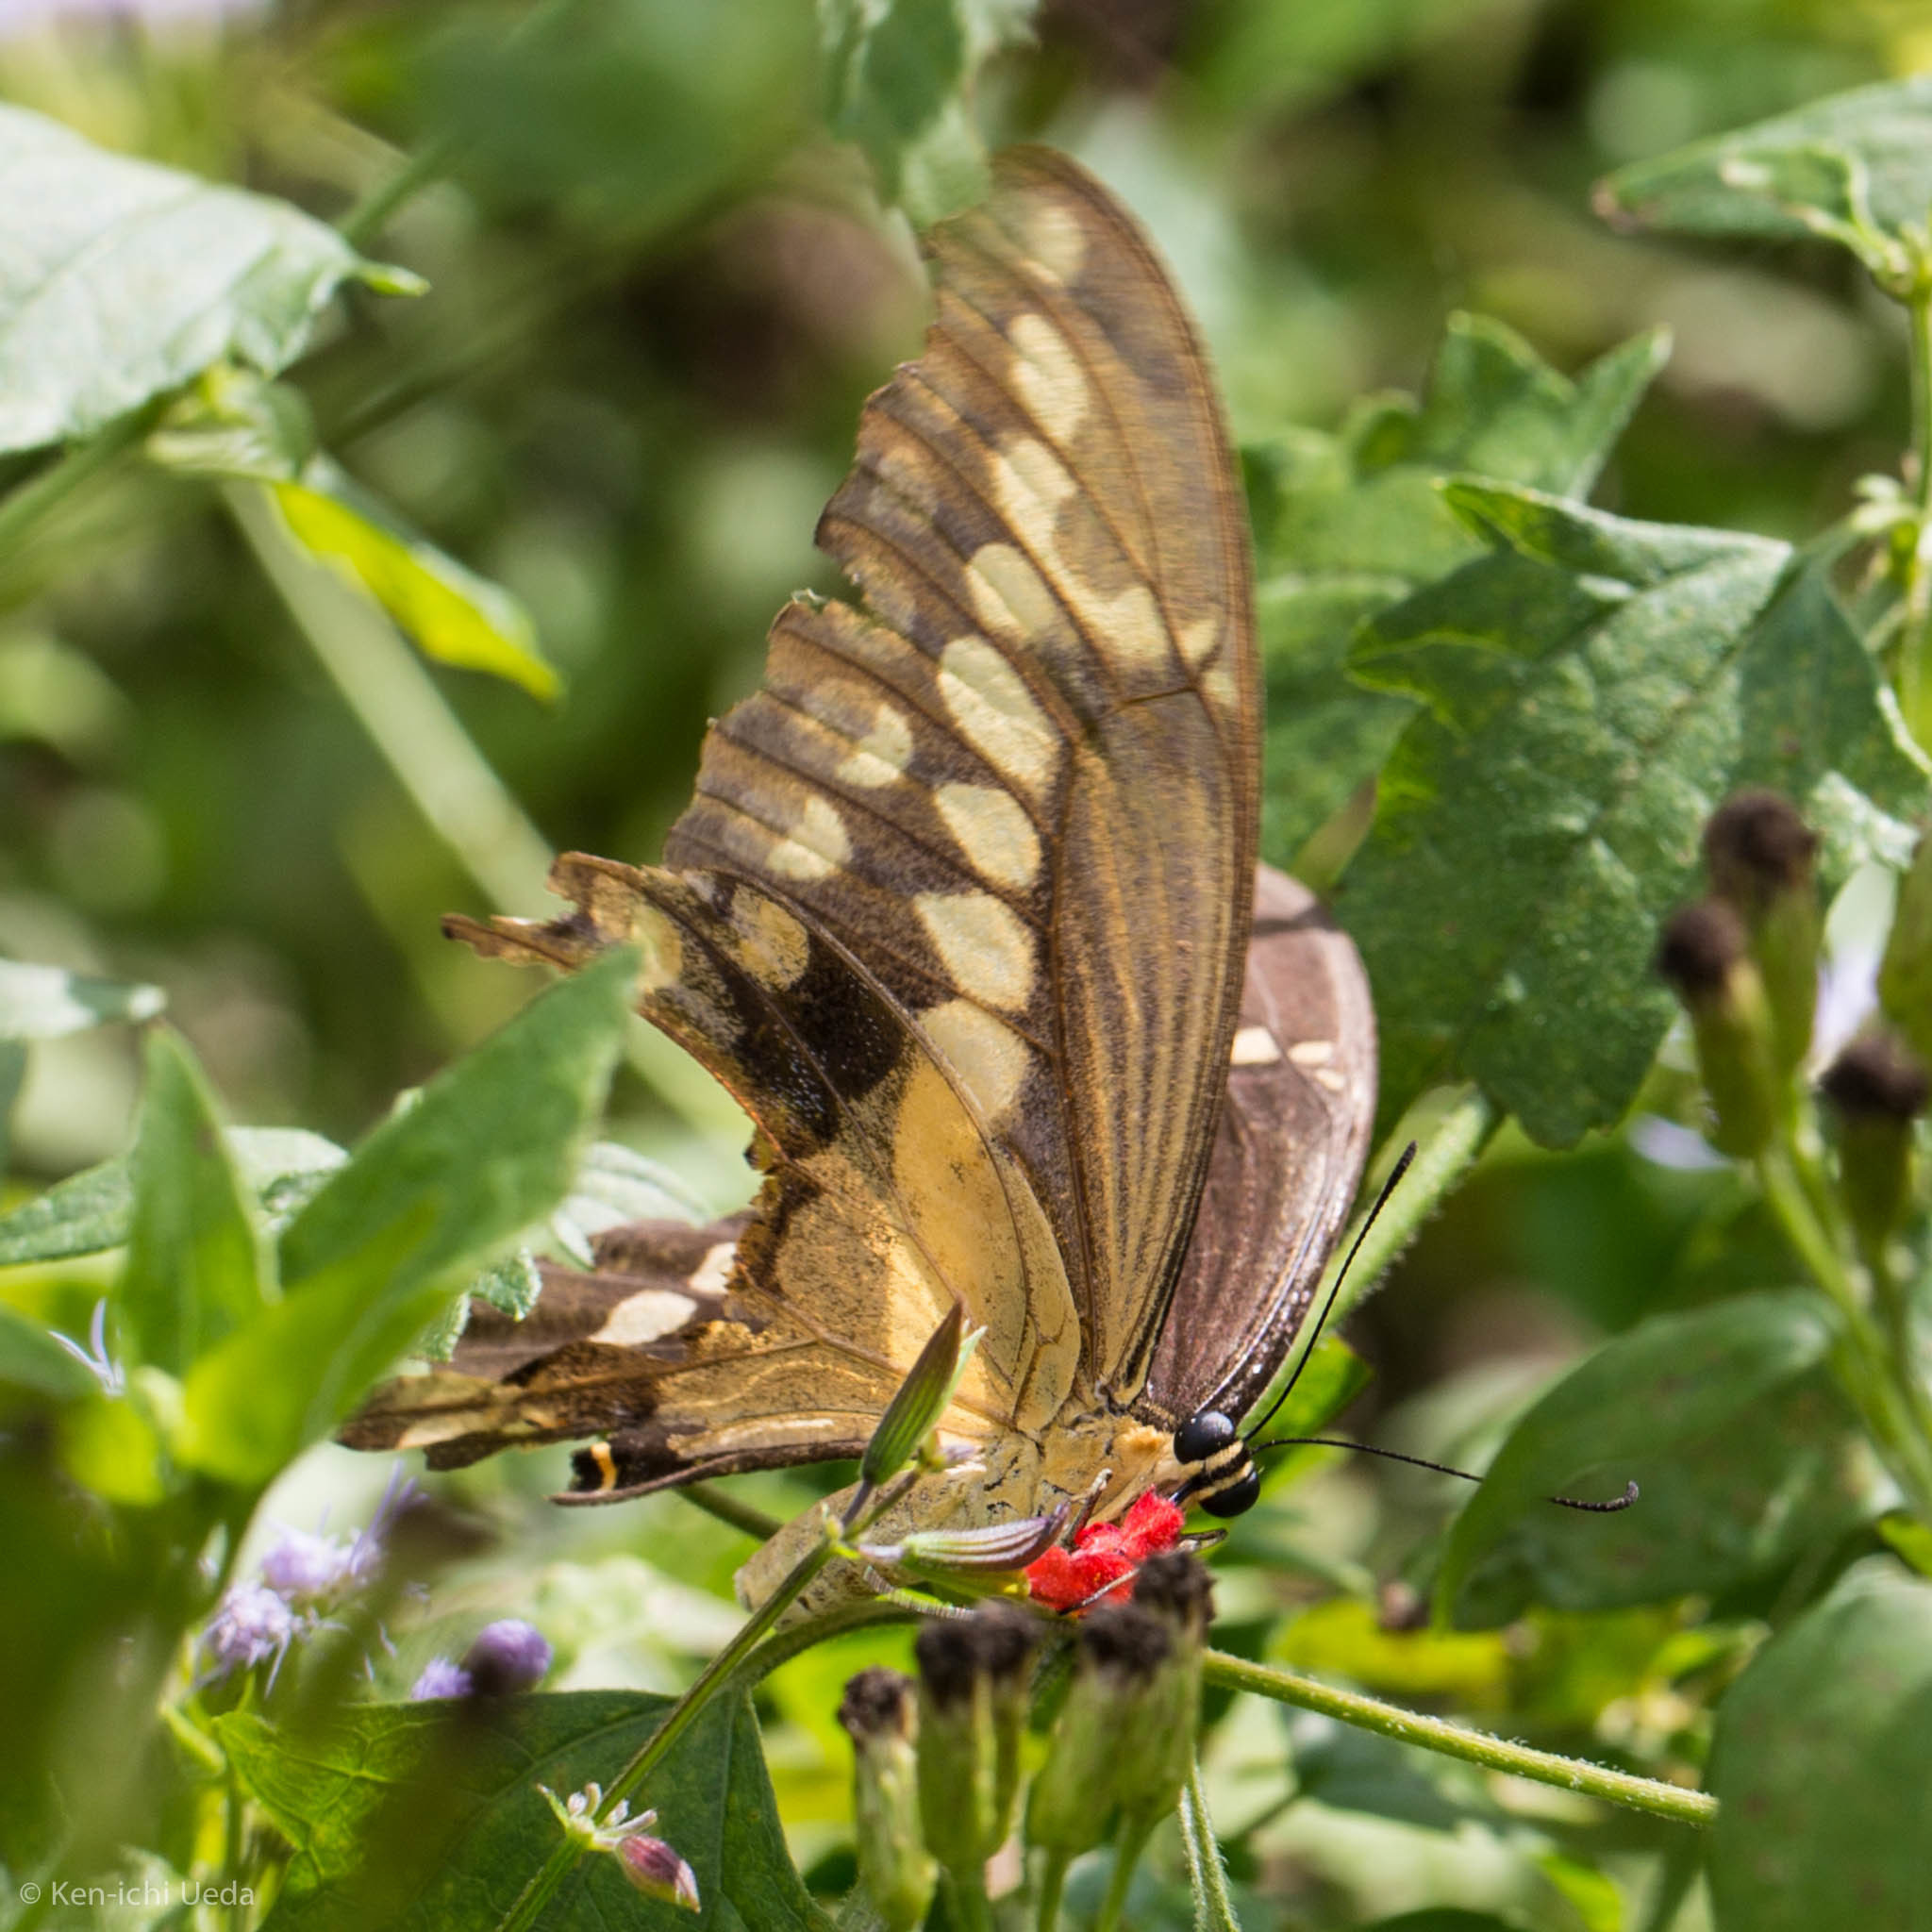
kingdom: Animalia
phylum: Arthropoda
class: Insecta
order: Lepidoptera
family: Papilionidae
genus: Papilio
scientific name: Papilio
